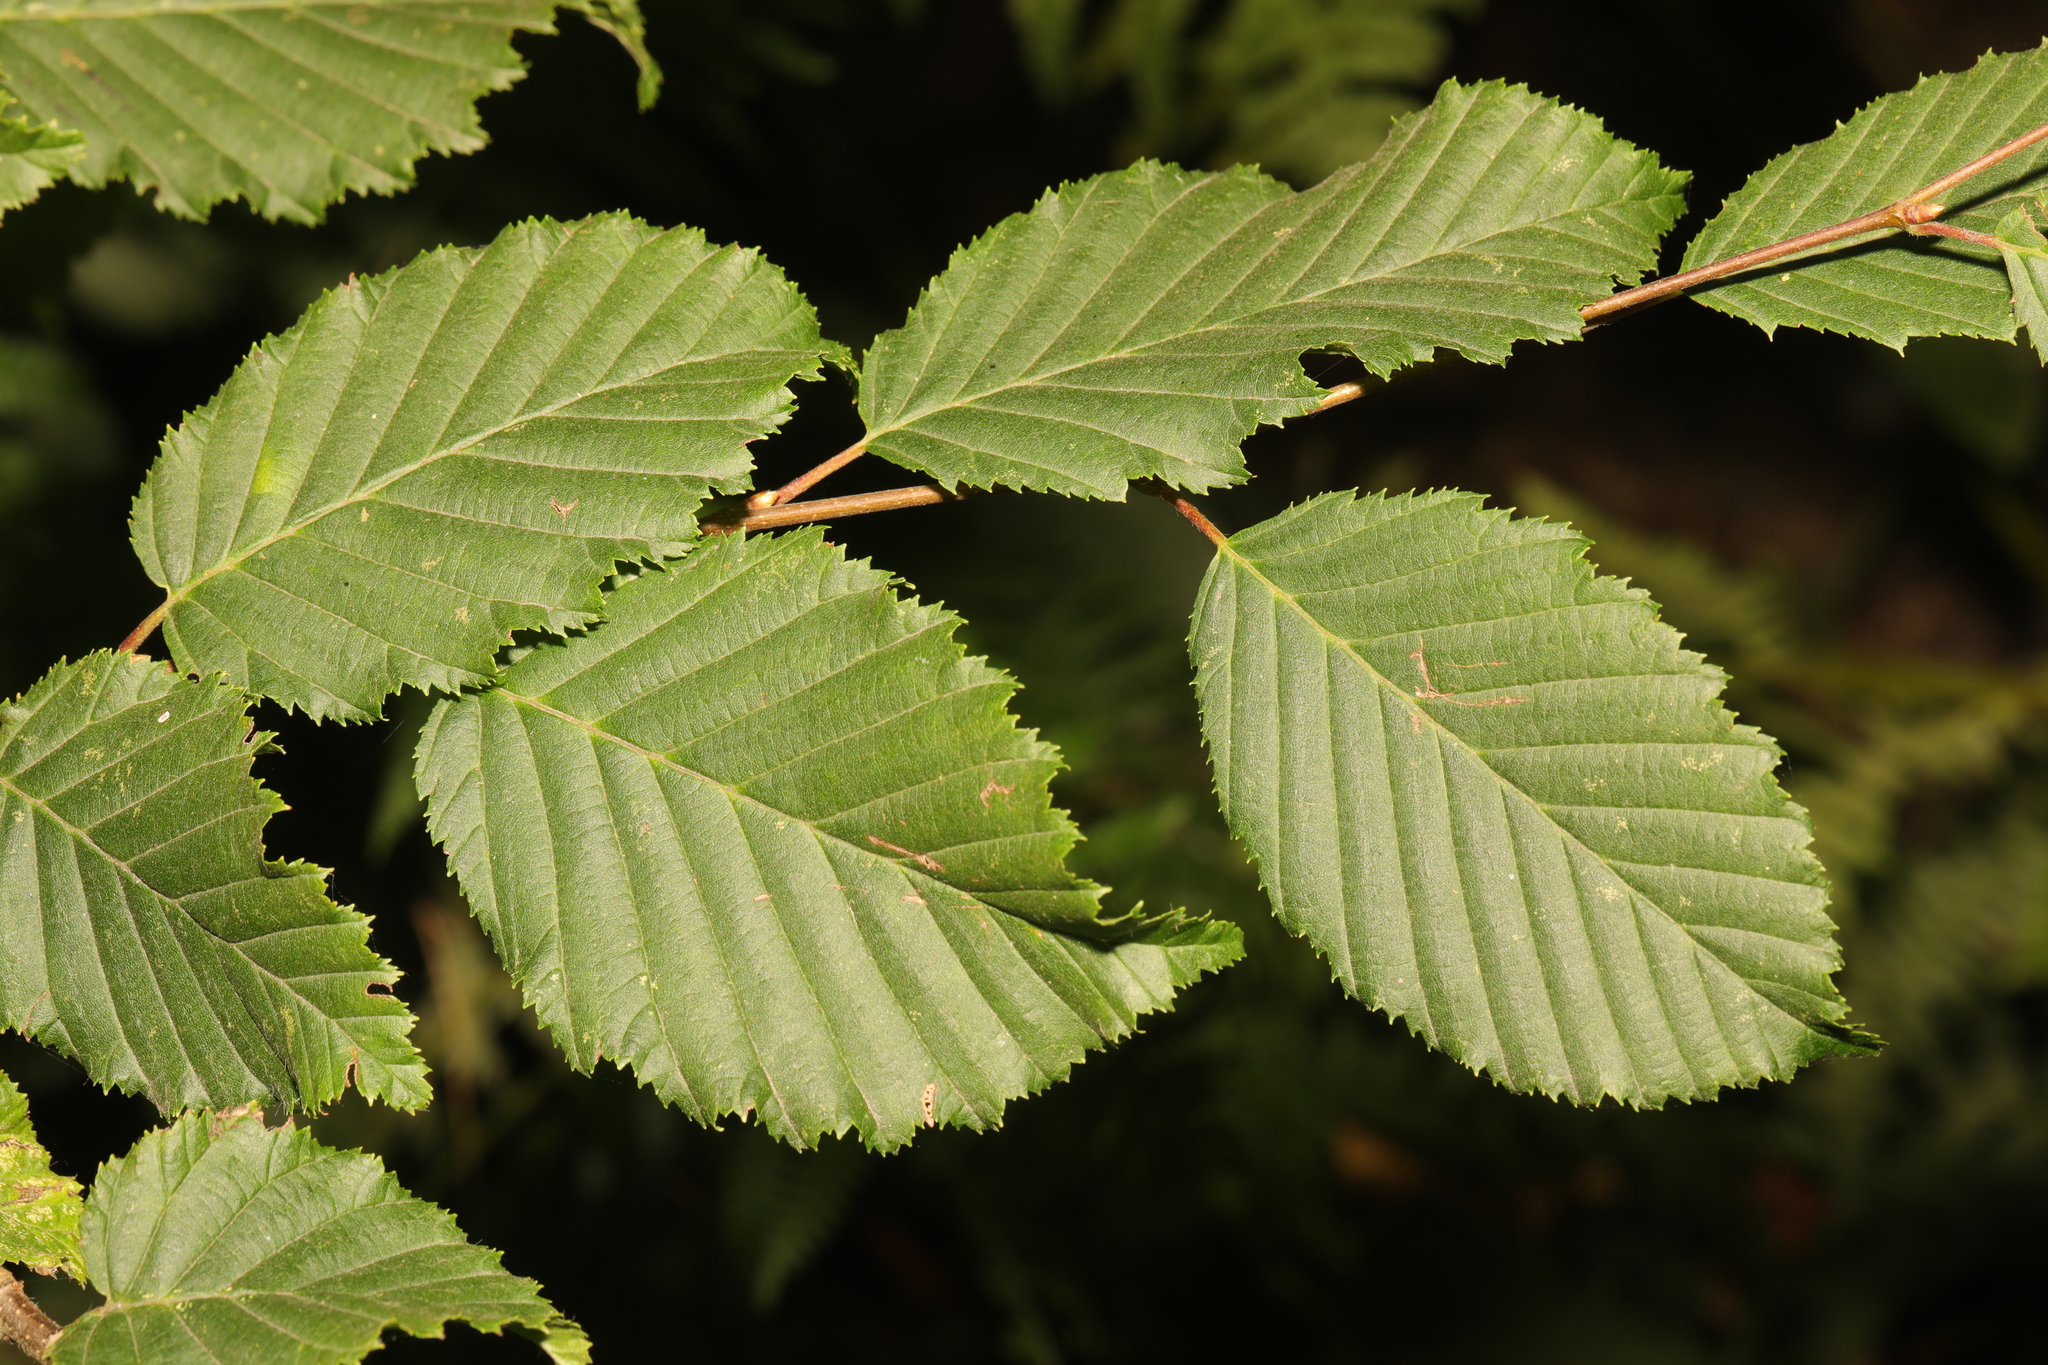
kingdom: Plantae
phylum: Tracheophyta
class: Magnoliopsida
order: Fagales
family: Betulaceae
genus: Carpinus
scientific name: Carpinus betulus
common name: Hornbeam
